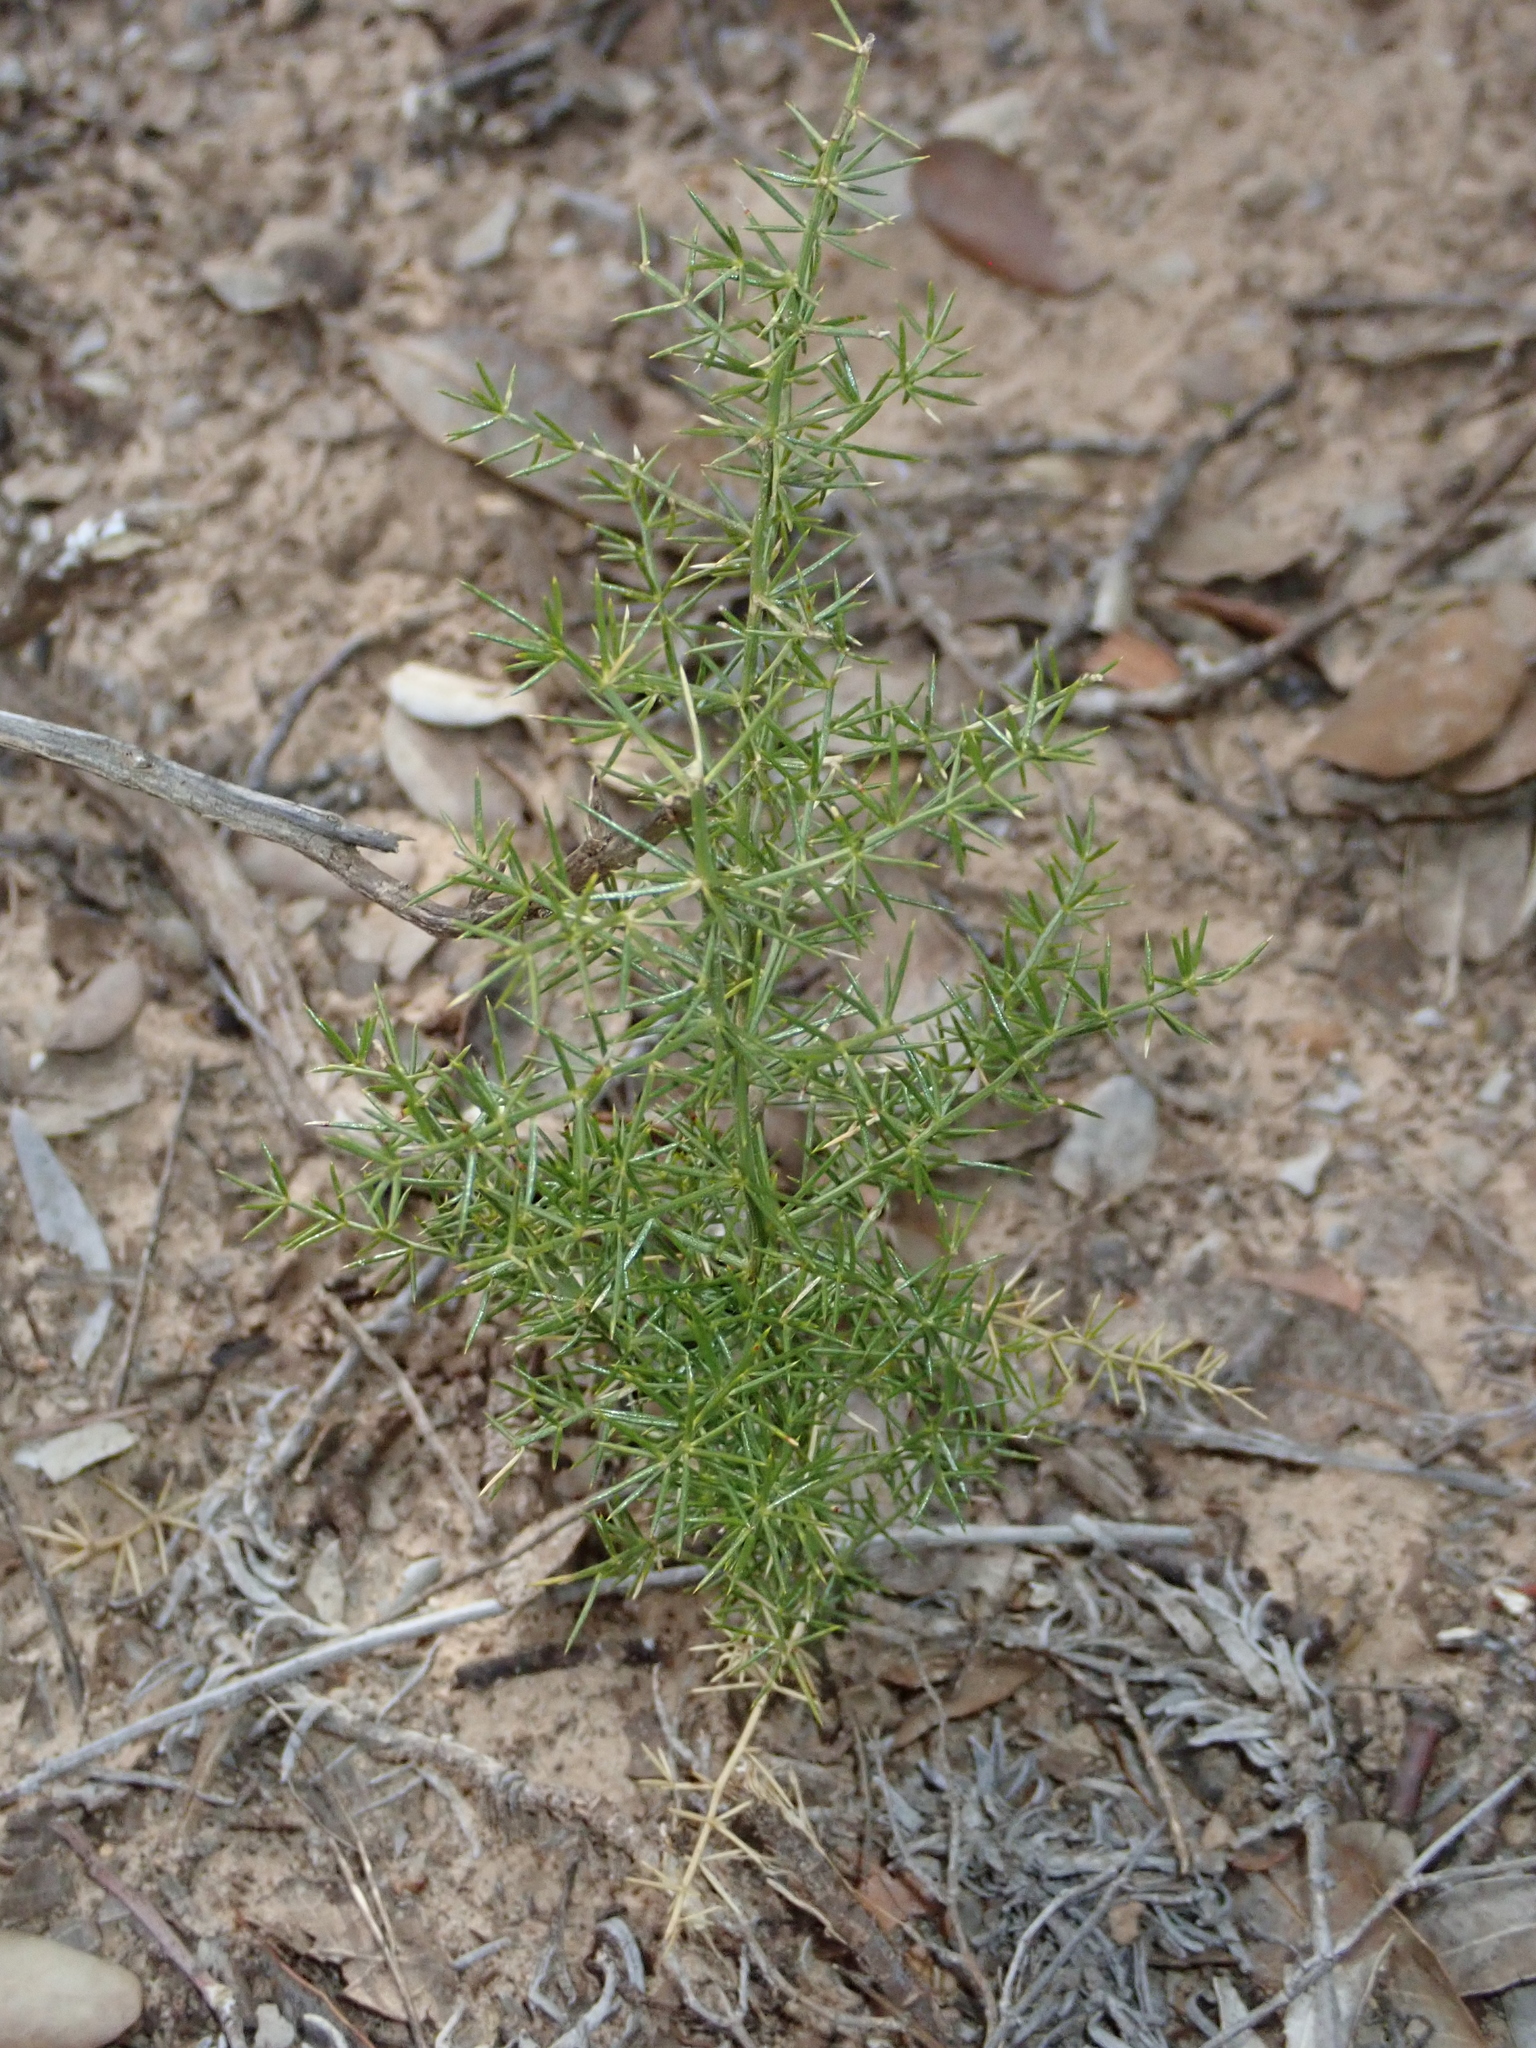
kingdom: Plantae
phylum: Tracheophyta
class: Liliopsida
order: Asparagales
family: Asparagaceae
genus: Asparagus
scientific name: Asparagus acutifolius
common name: Wild asparagus
